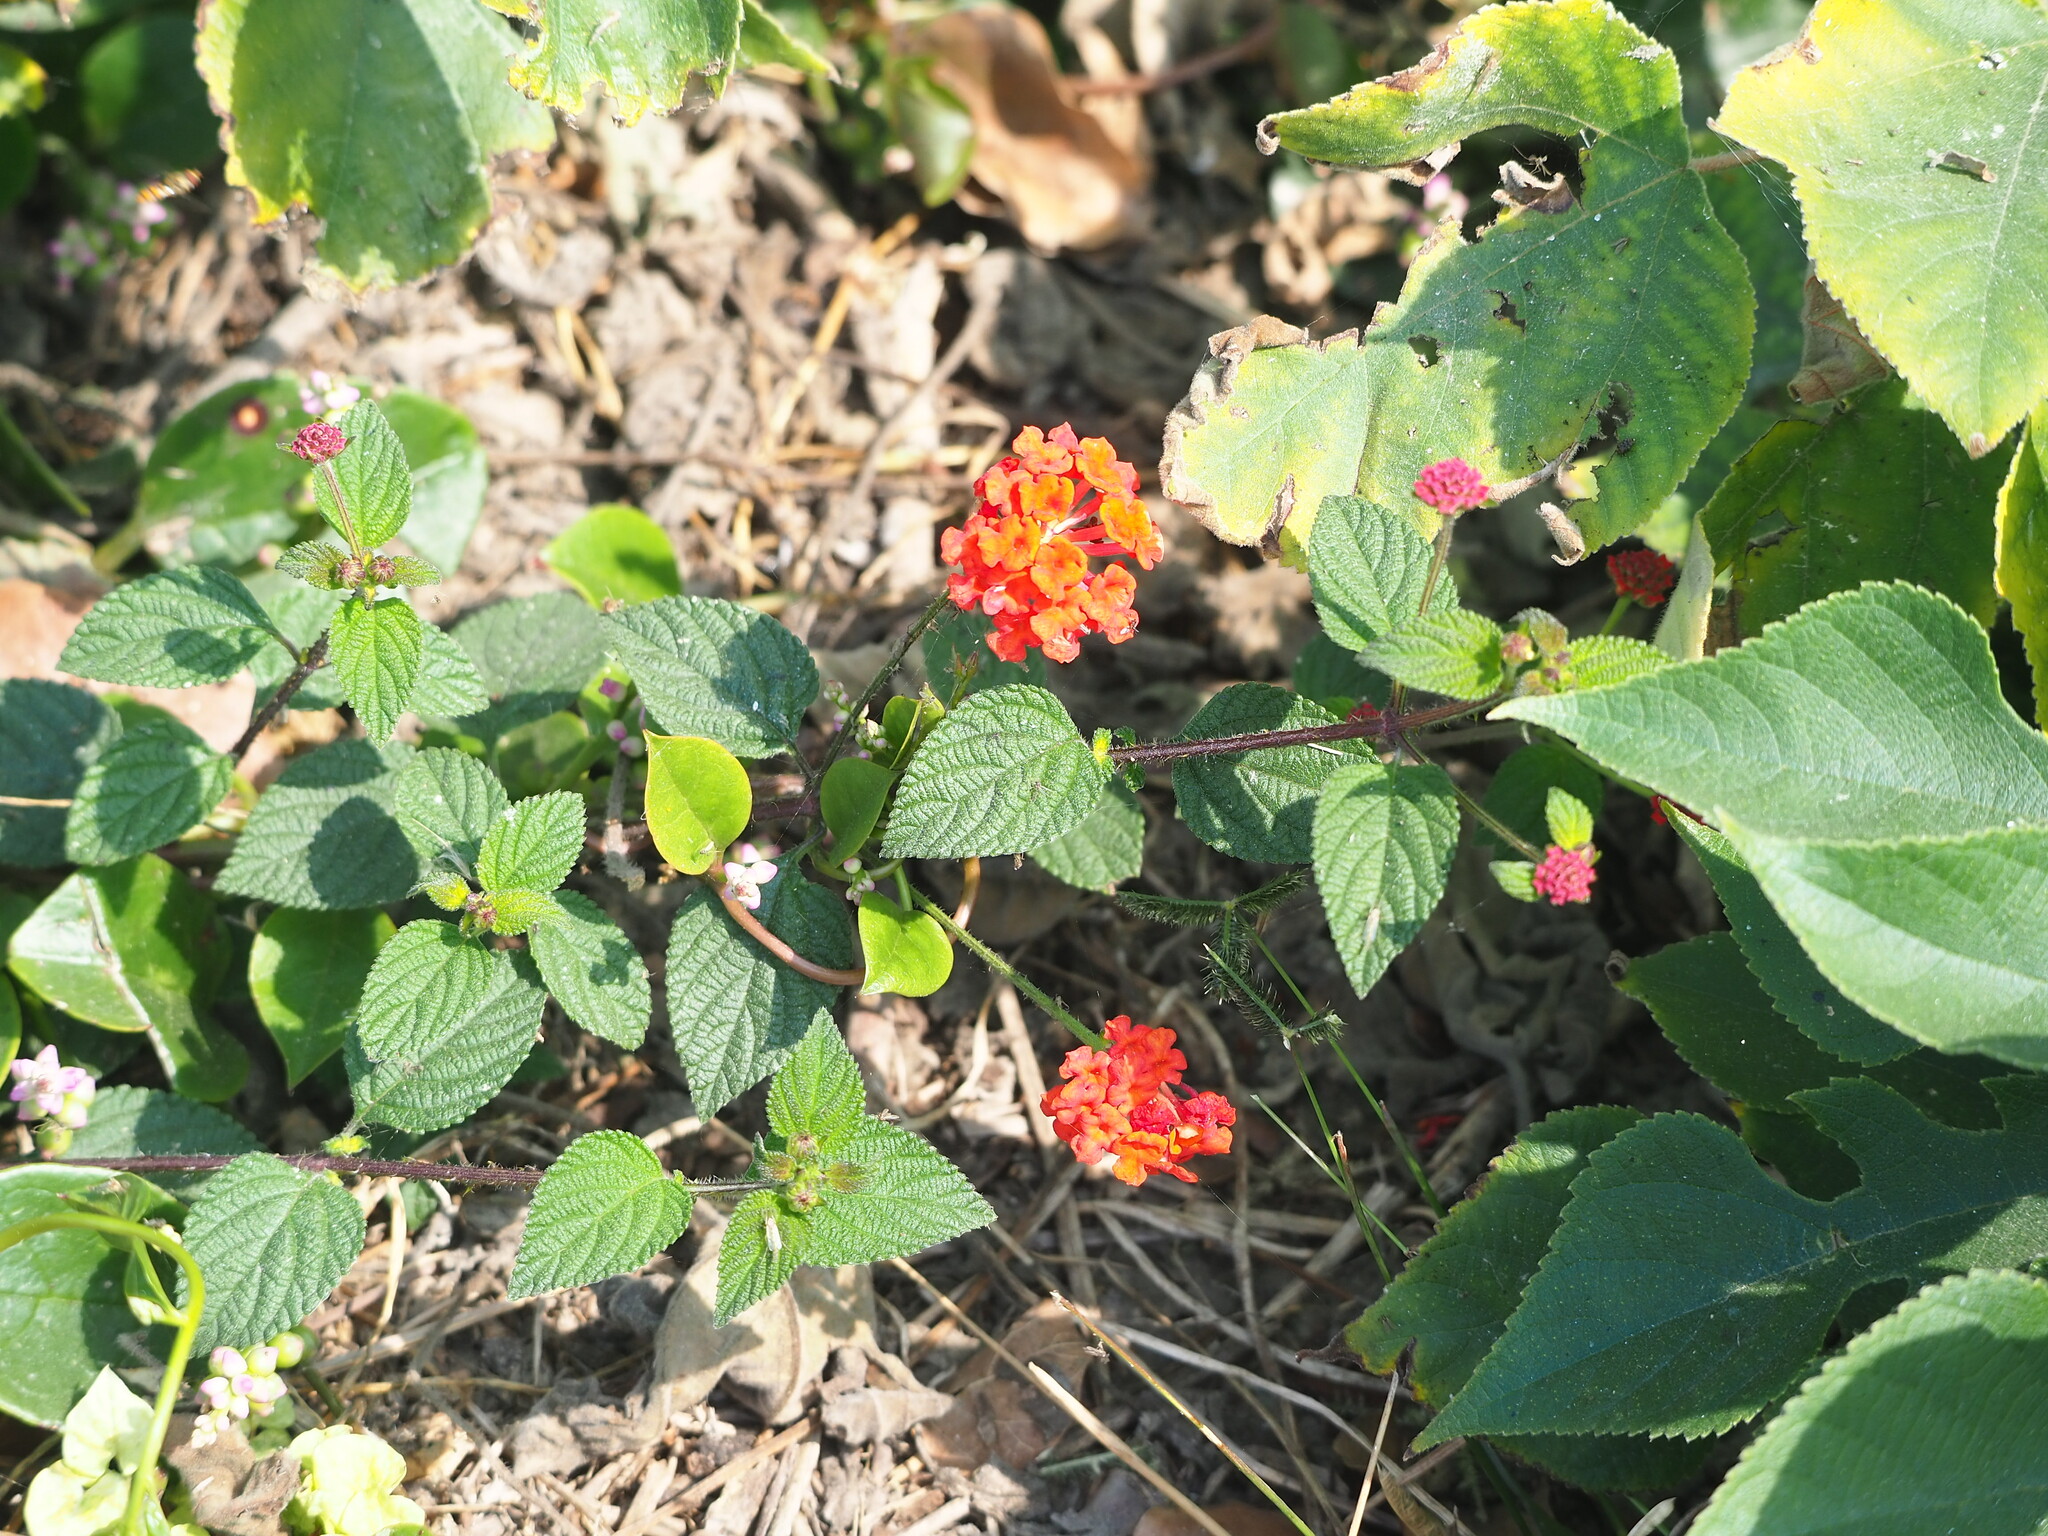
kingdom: Plantae
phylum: Tracheophyta
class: Magnoliopsida
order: Lamiales
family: Verbenaceae
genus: Lantana
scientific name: Lantana camara
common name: Lantana
